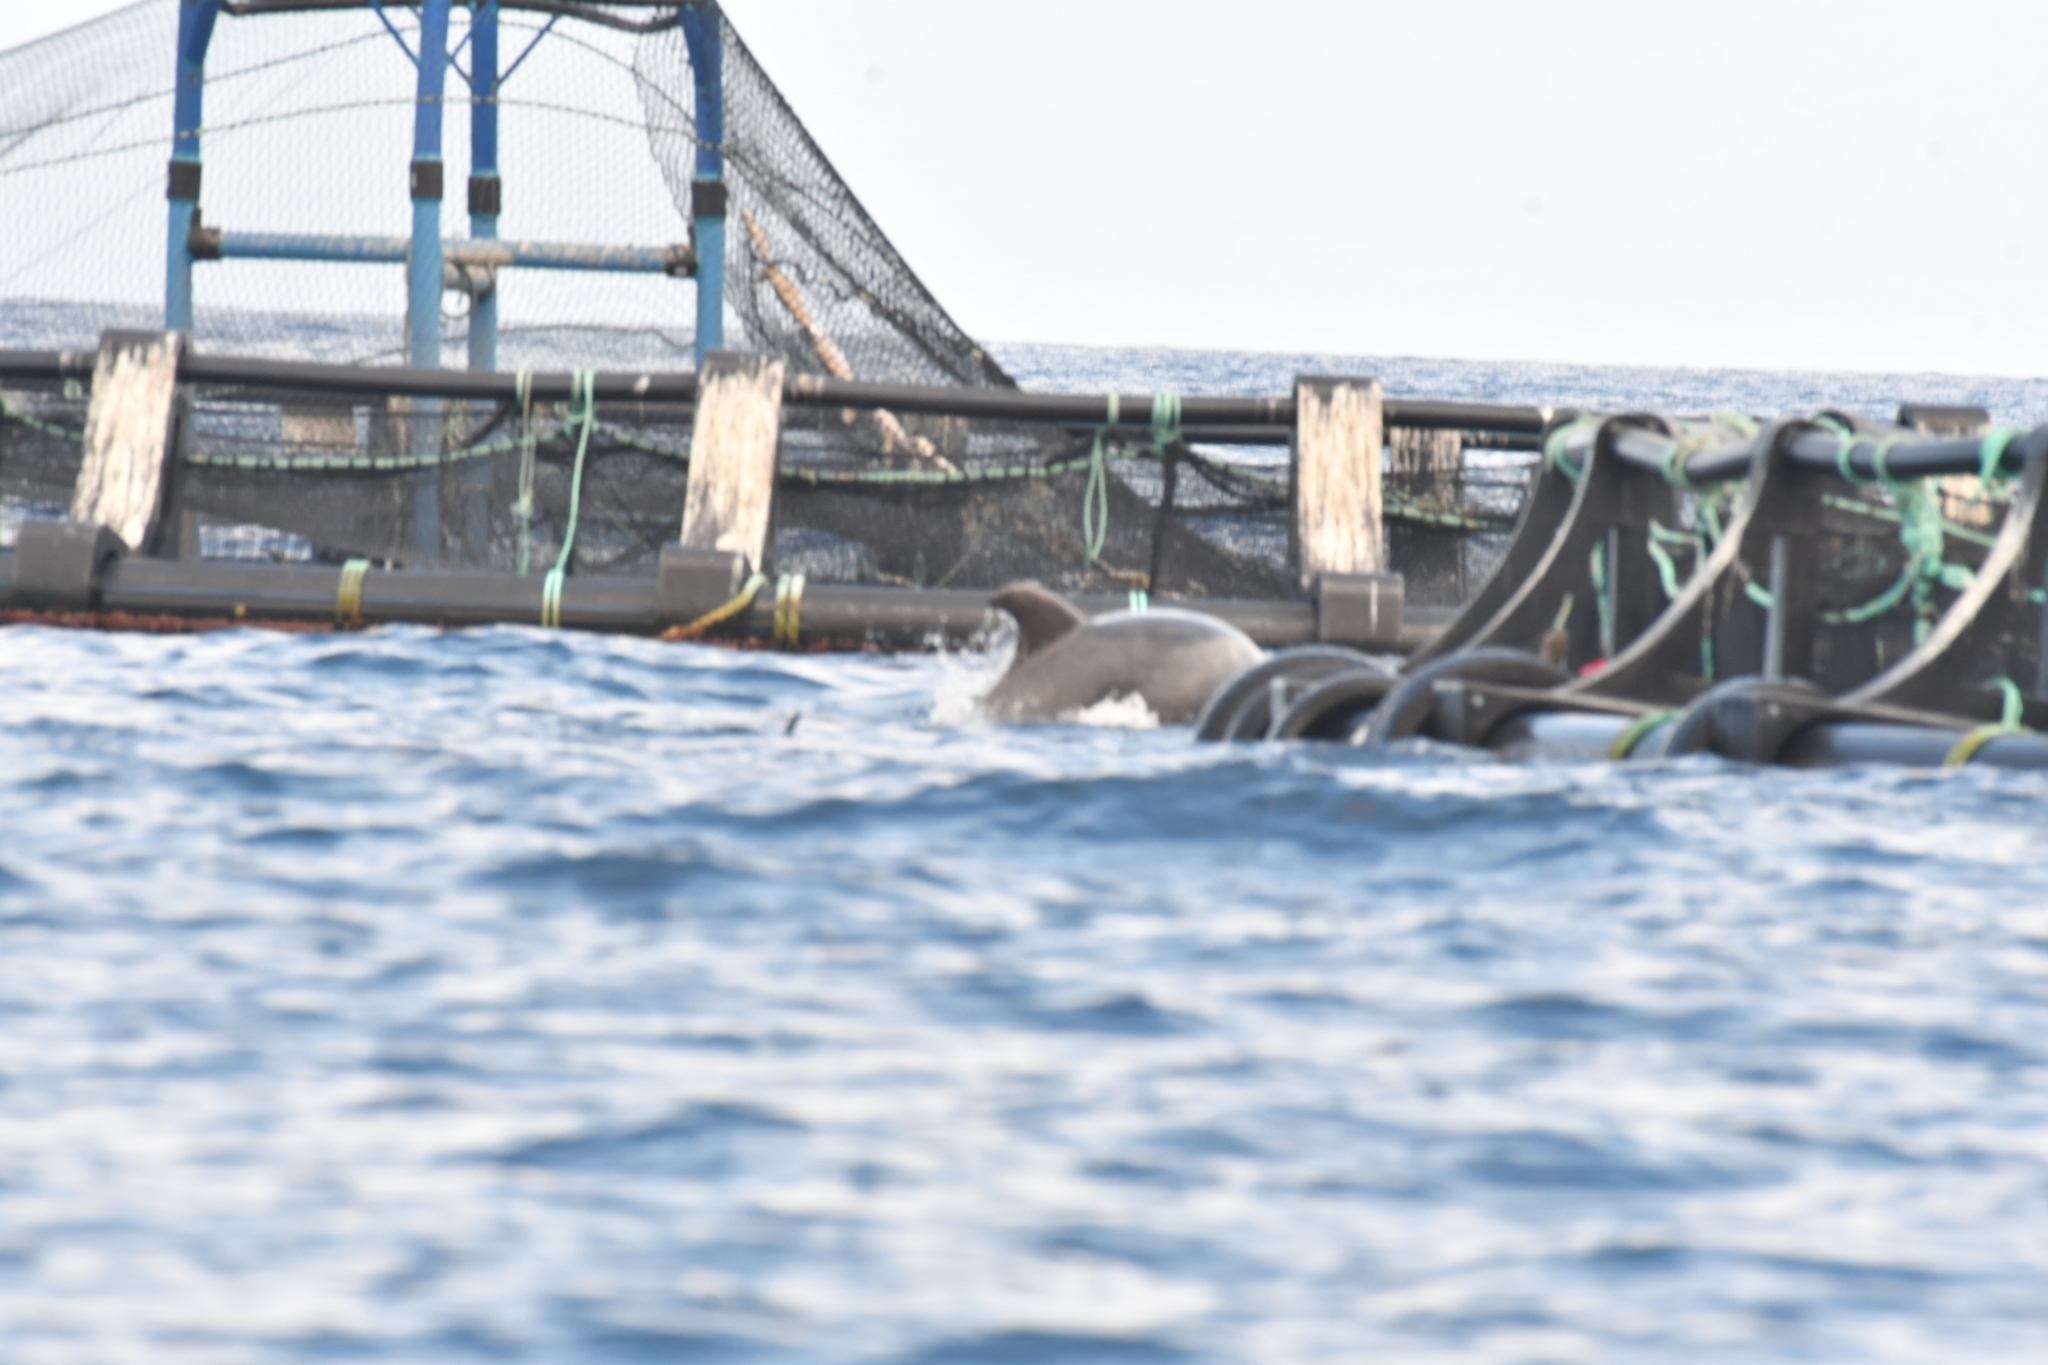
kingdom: Animalia
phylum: Chordata
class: Mammalia
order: Cetacea
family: Delphinidae
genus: Tursiops
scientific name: Tursiops truncatus
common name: Bottlenose dolphin
